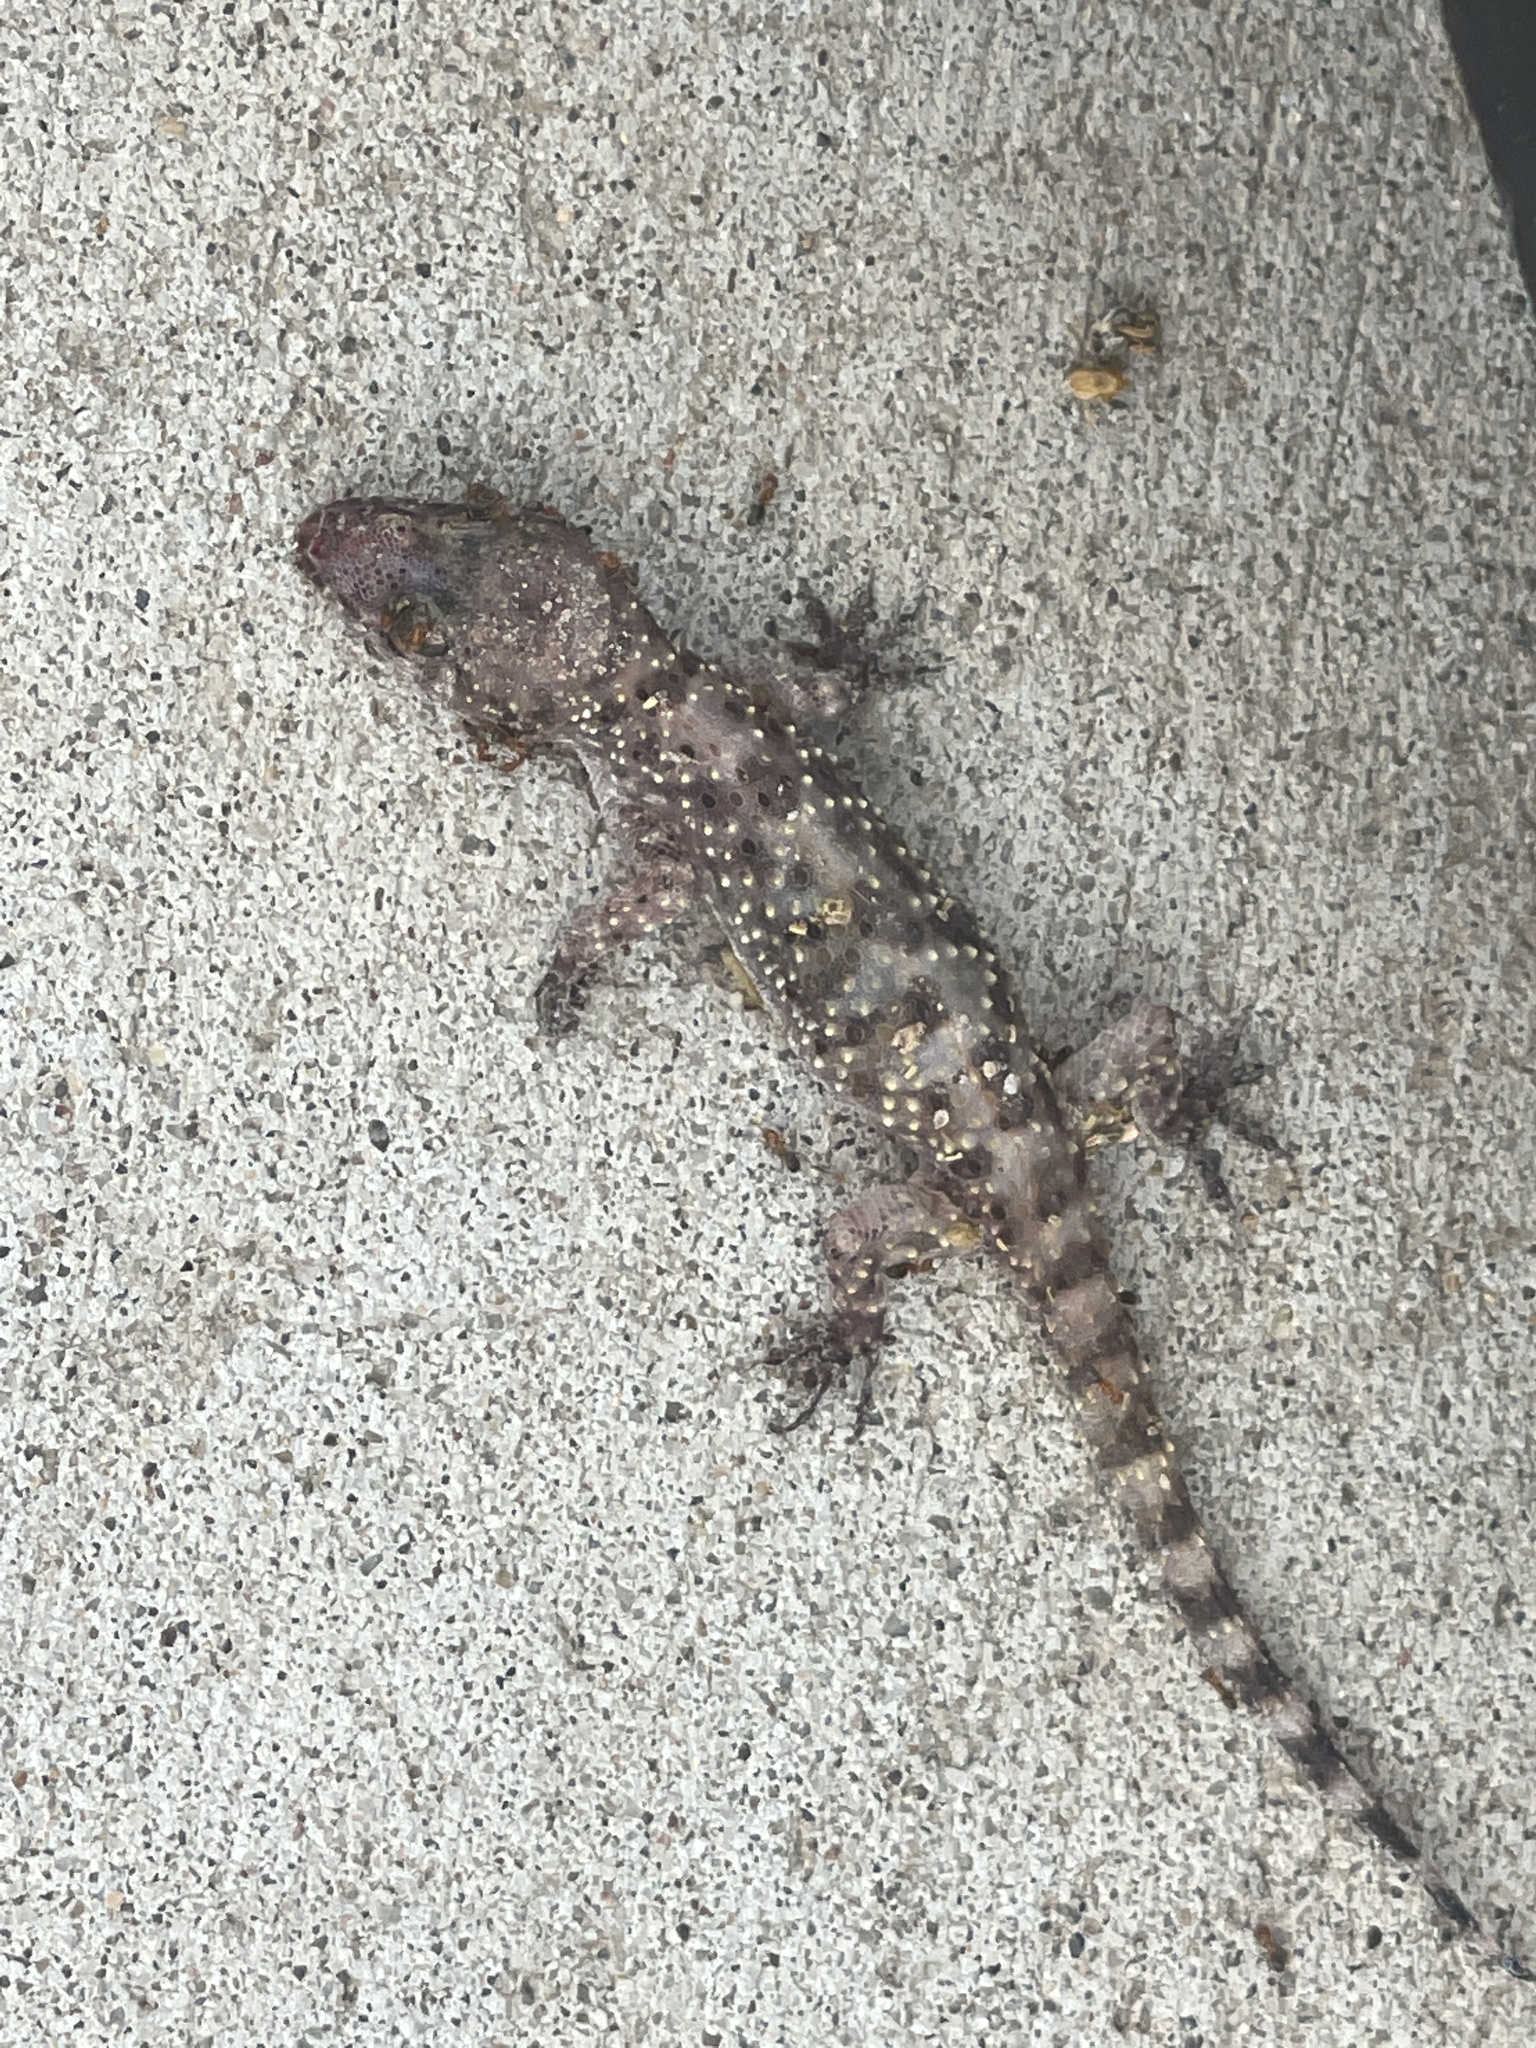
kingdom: Animalia
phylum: Chordata
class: Squamata
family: Gekkonidae
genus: Hemidactylus
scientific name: Hemidactylus turcicus
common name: Turkish gecko
